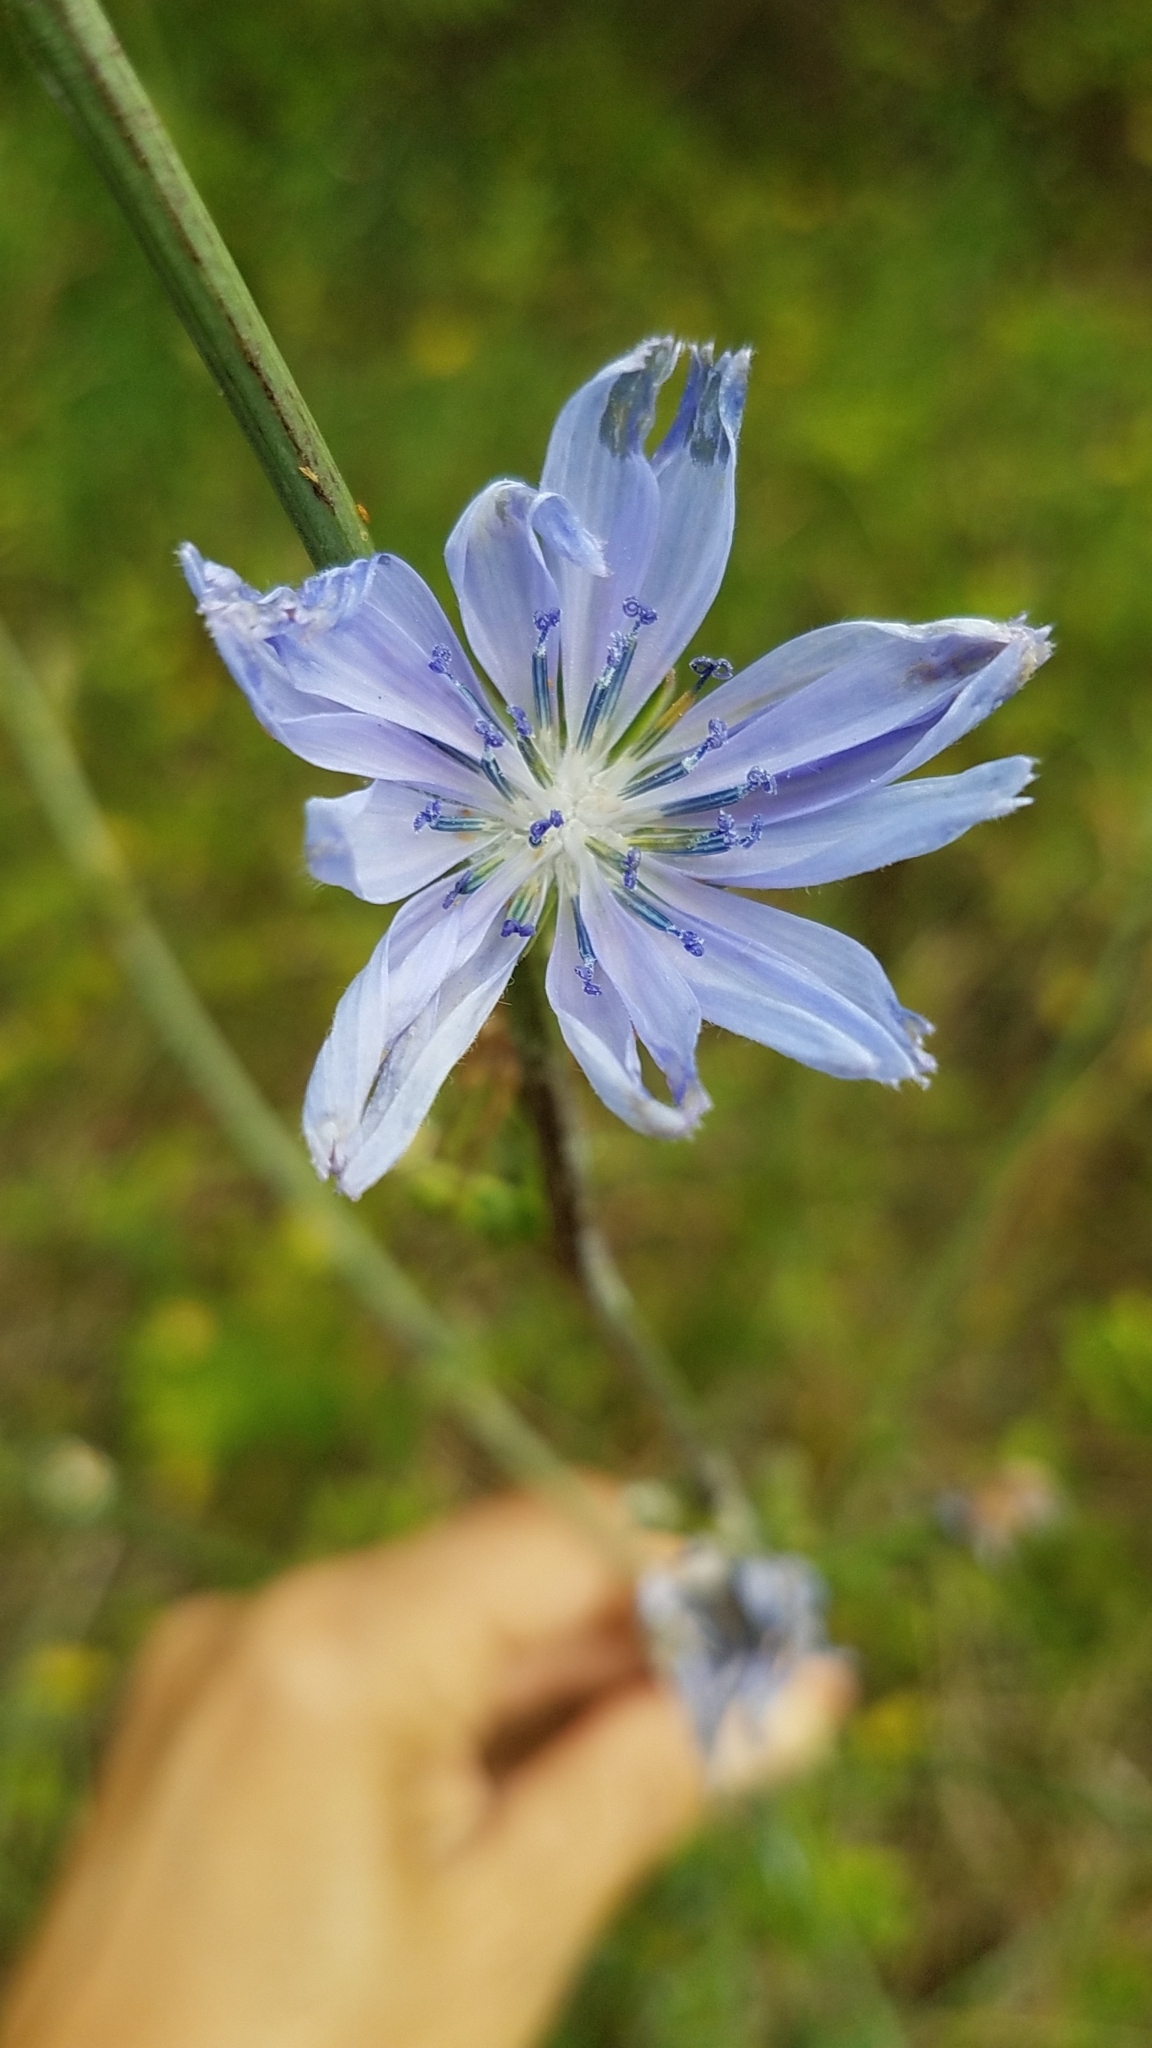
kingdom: Plantae
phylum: Tracheophyta
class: Magnoliopsida
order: Asterales
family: Asteraceae
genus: Cichorium
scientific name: Cichorium intybus
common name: Chicory
